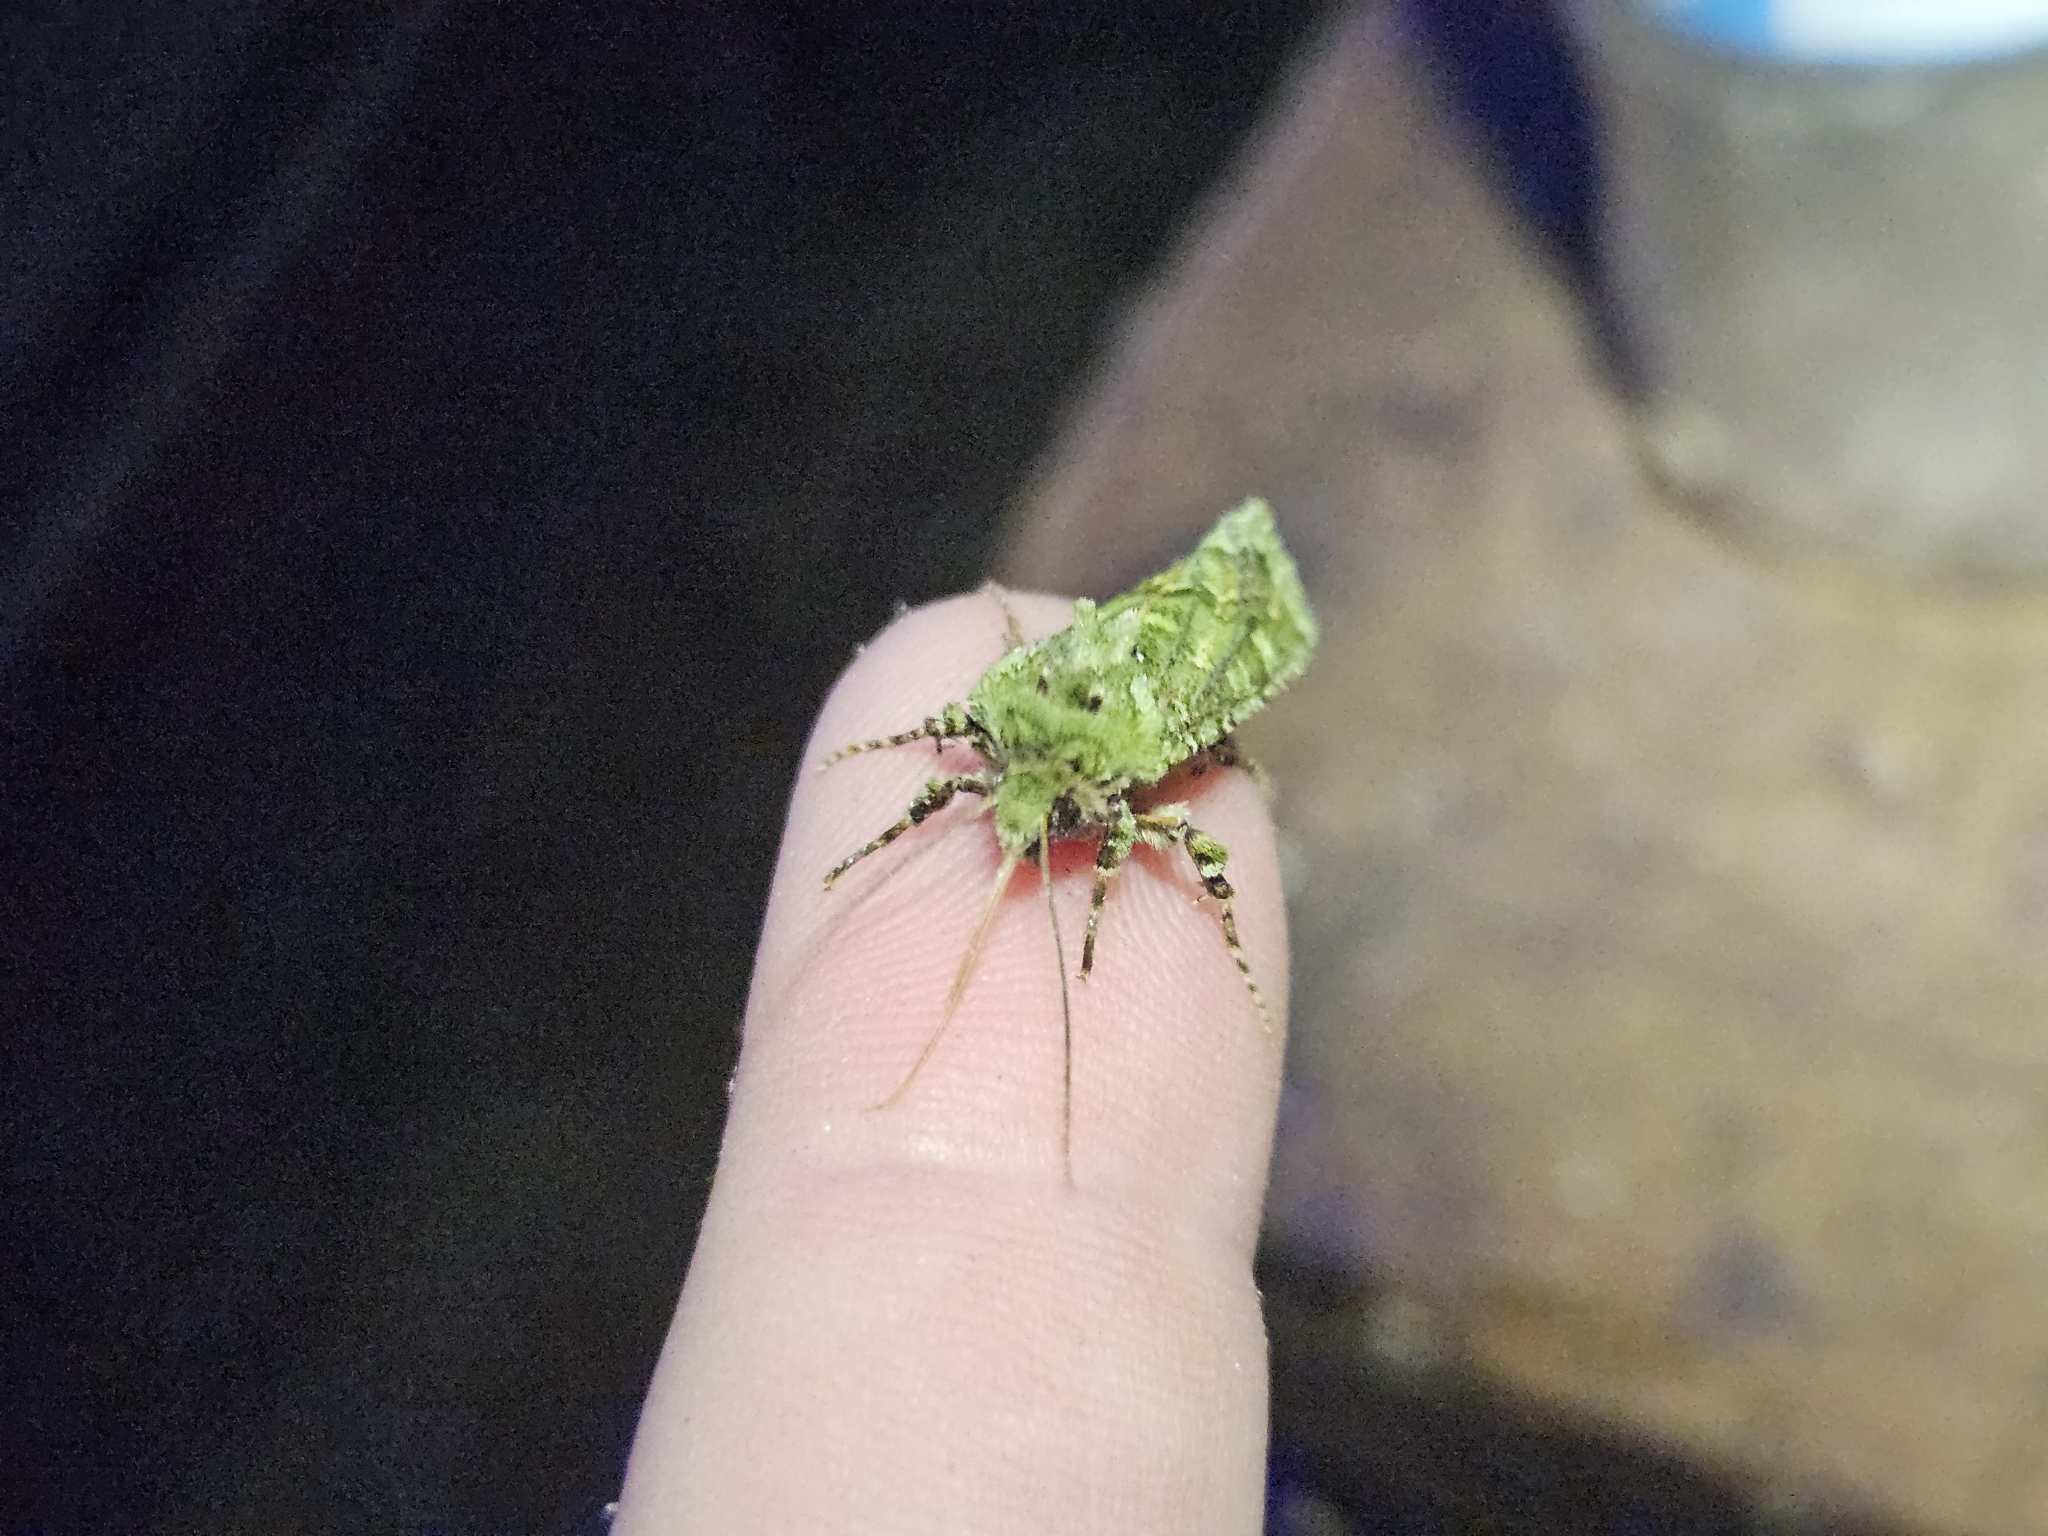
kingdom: Animalia
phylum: Arthropoda
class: Insecta
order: Lepidoptera
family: Noctuidae
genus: Feredayia
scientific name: Feredayia grammosa
